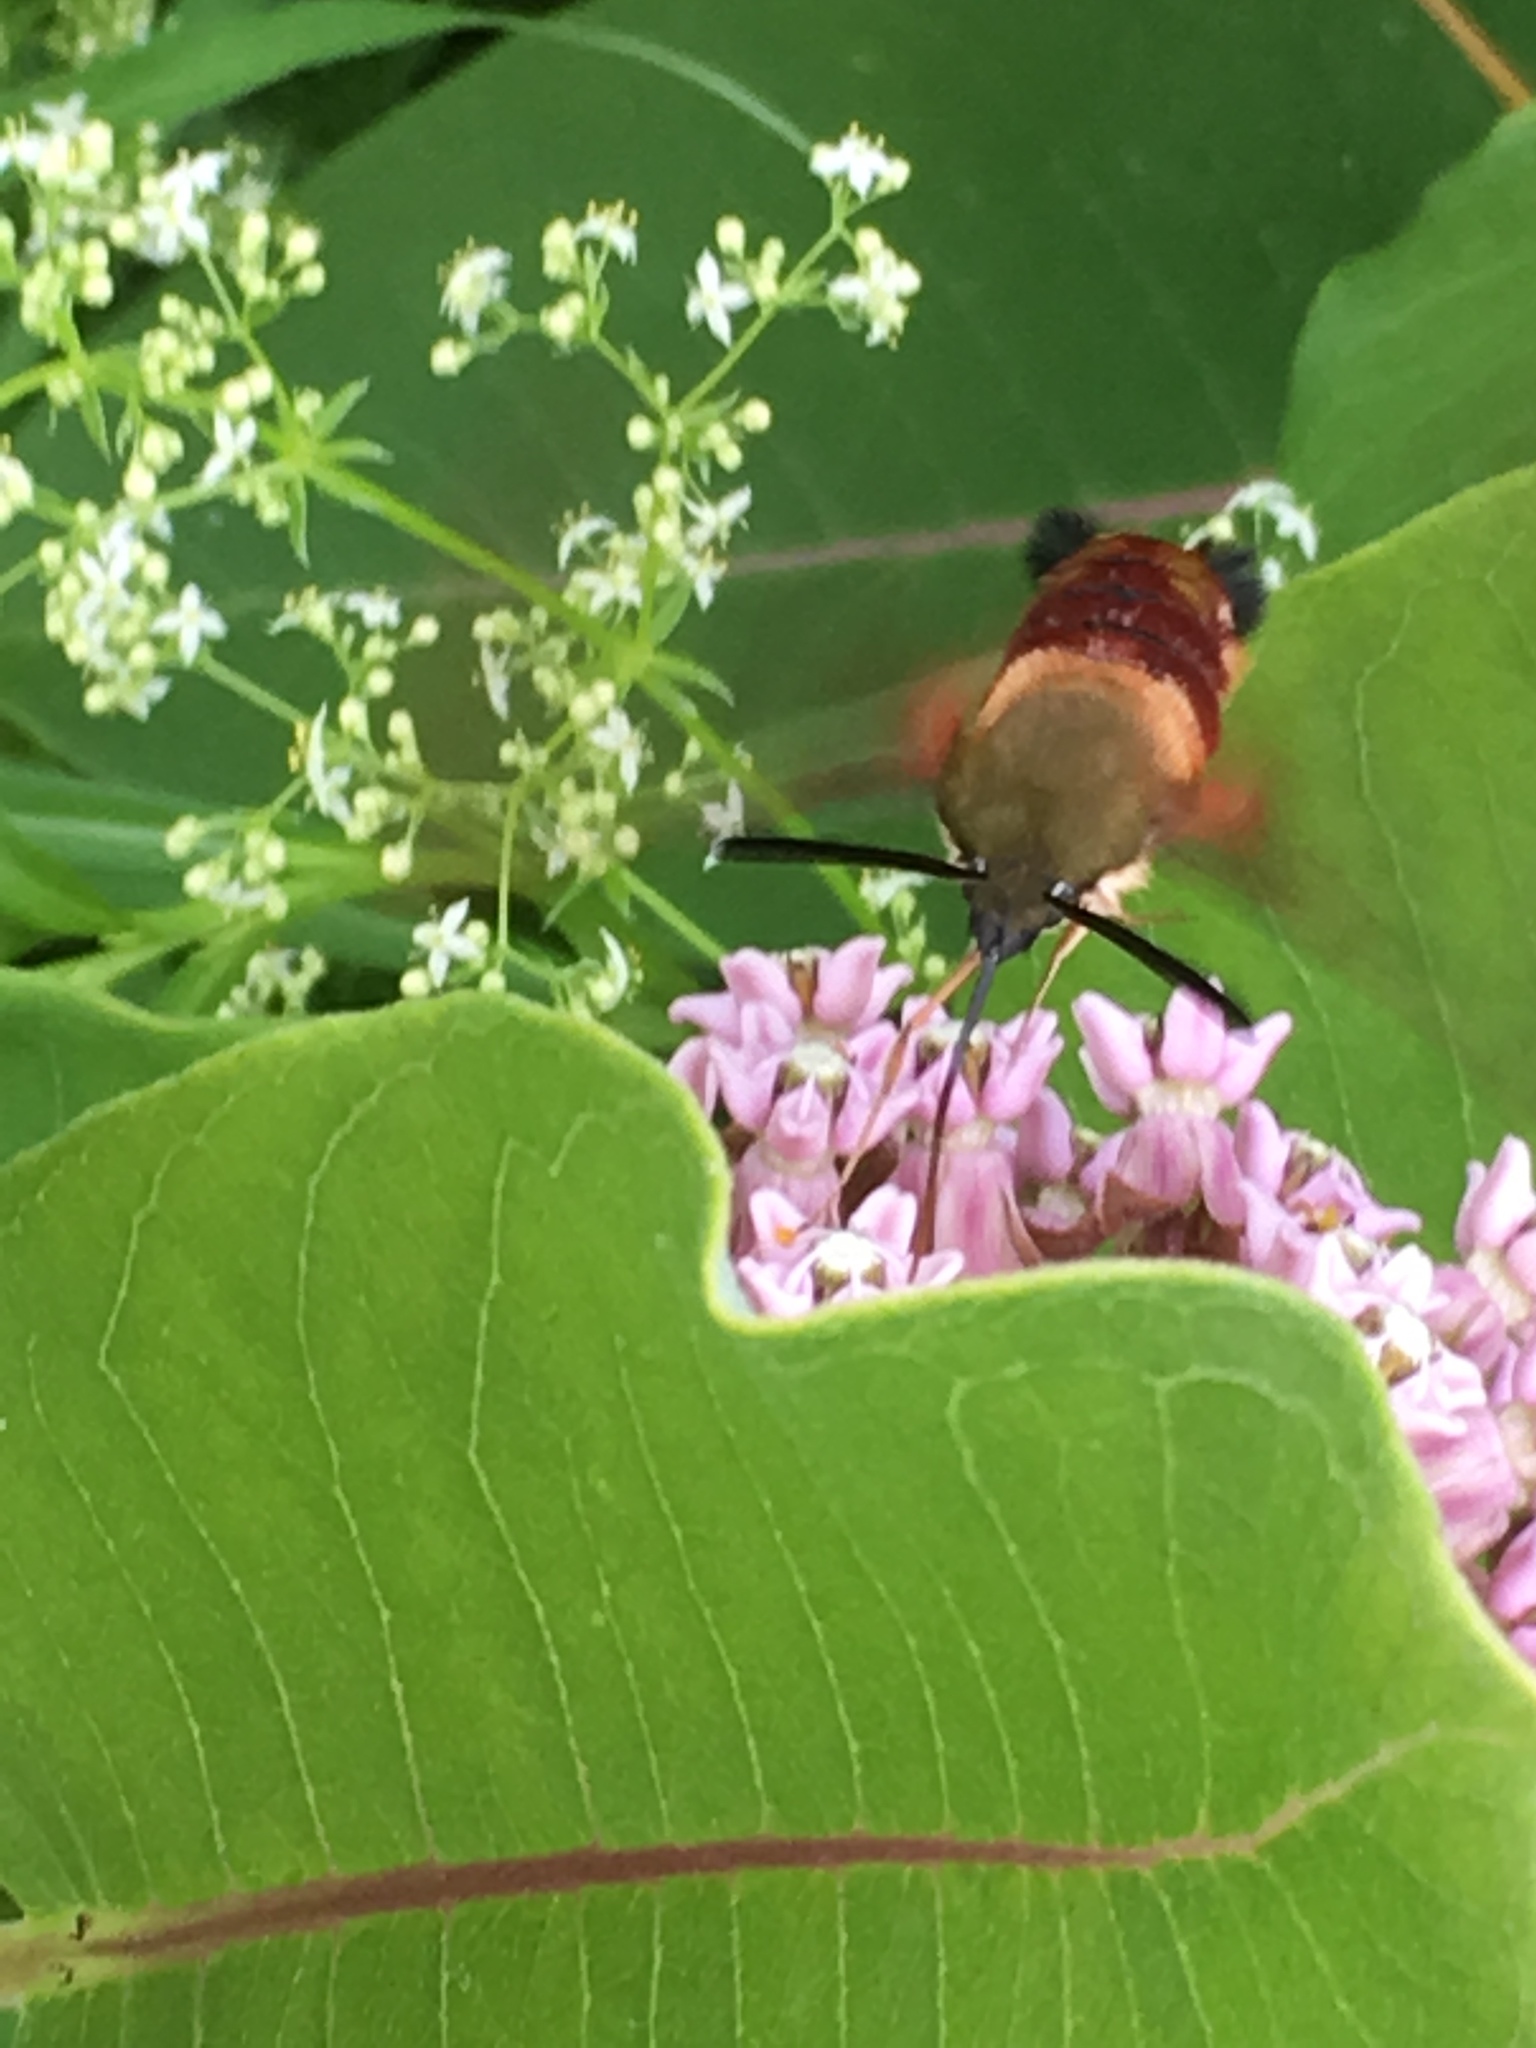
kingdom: Animalia
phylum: Arthropoda
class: Insecta
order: Lepidoptera
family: Sphingidae
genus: Hemaris
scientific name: Hemaris thysbe
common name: Common clear-wing
